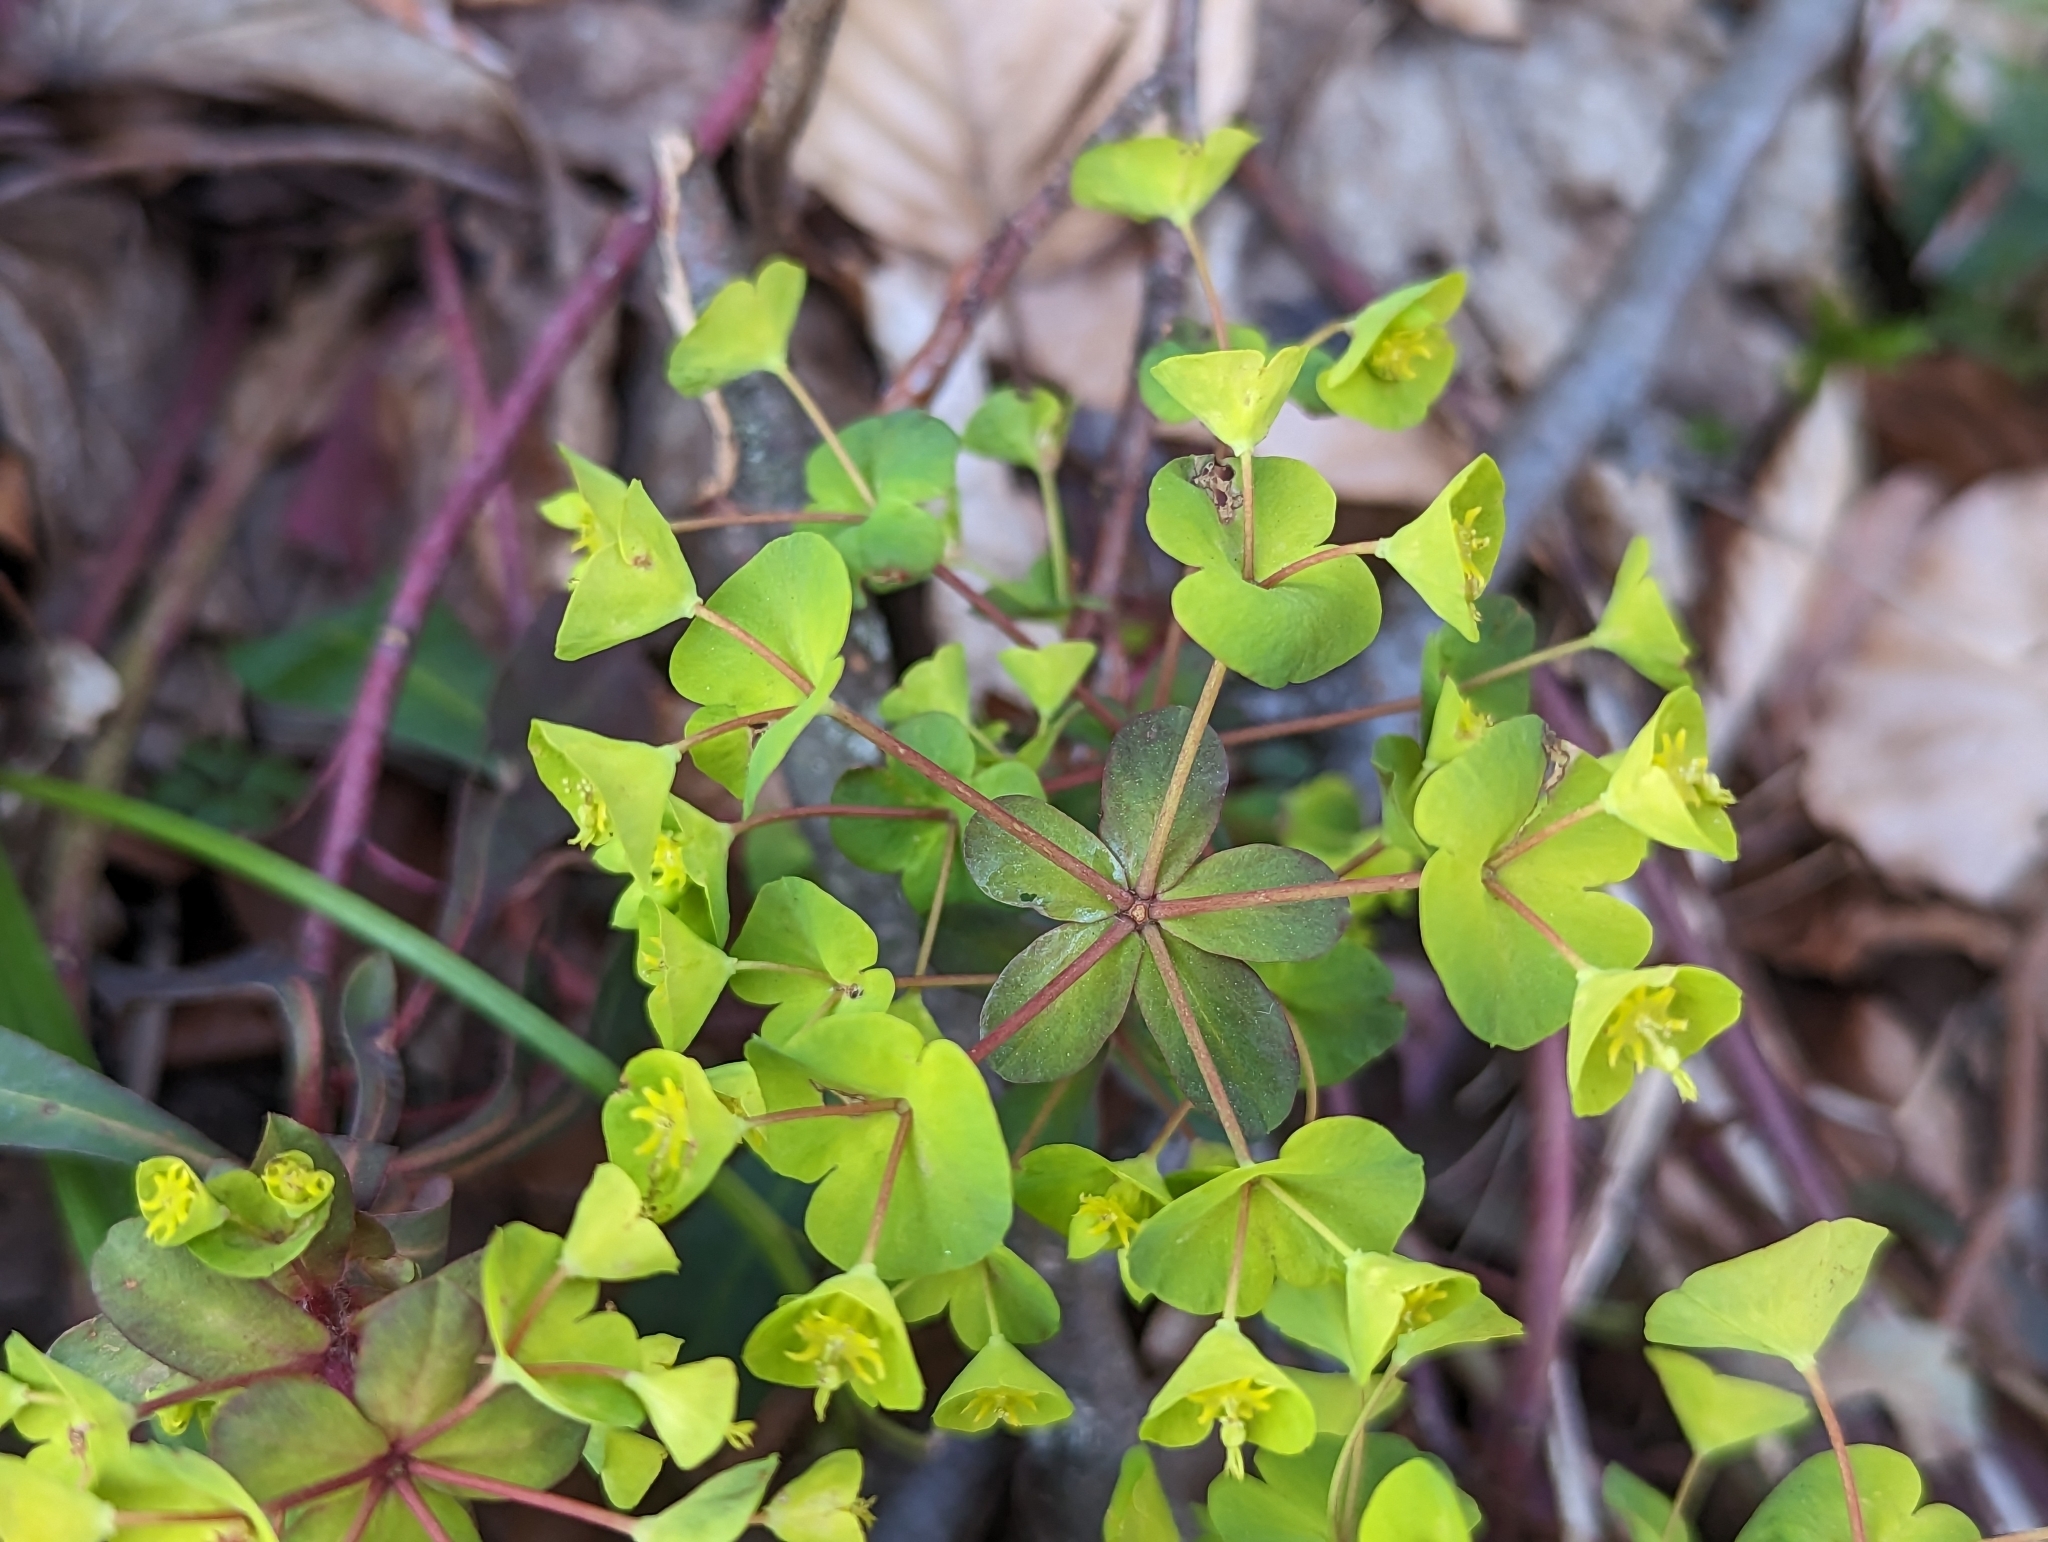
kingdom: Plantae
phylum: Tracheophyta
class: Magnoliopsida
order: Malpighiales
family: Euphorbiaceae
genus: Euphorbia
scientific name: Euphorbia amygdaloides
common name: Wood spurge
